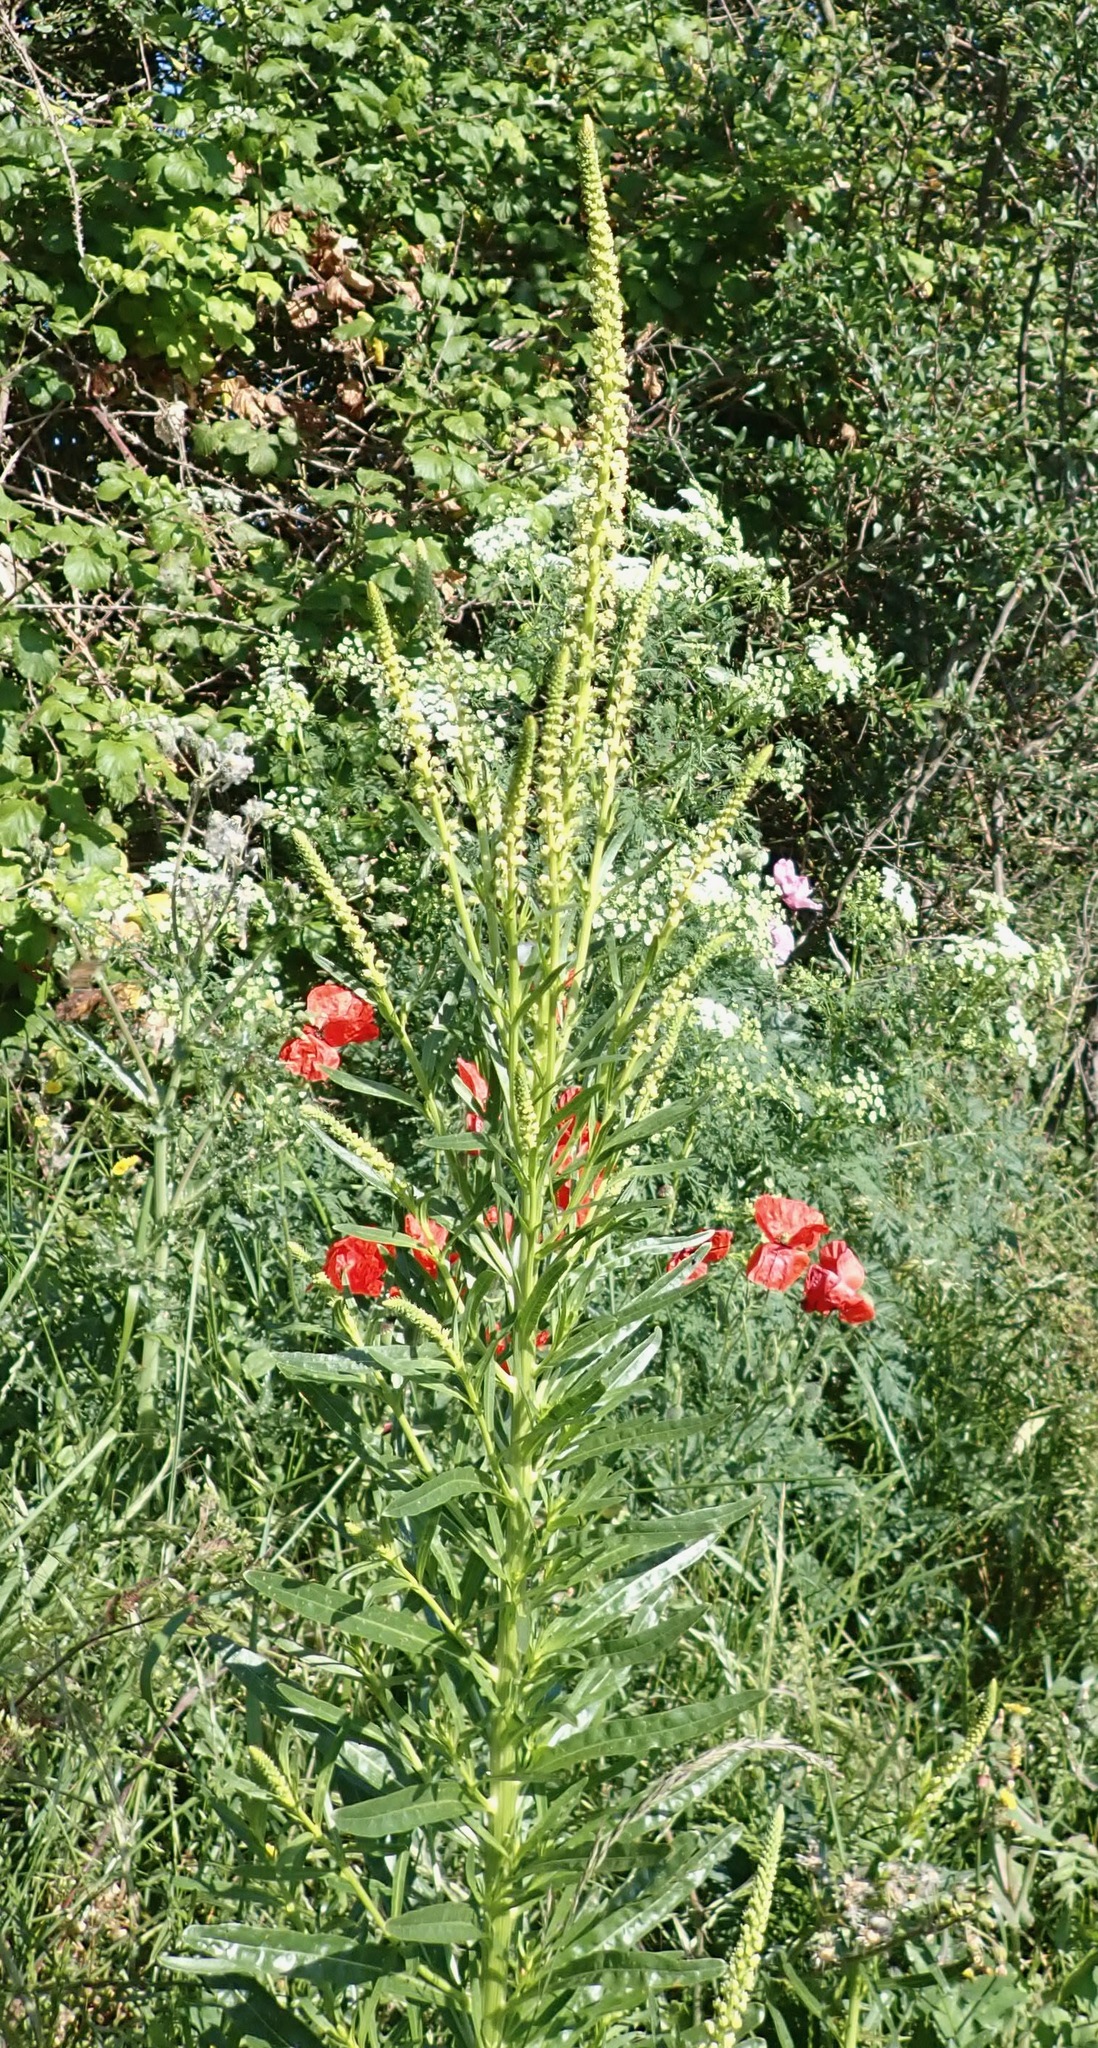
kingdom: Plantae
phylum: Tracheophyta
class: Magnoliopsida
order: Brassicales
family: Resedaceae
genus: Reseda
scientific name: Reseda luteola
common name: Weld
